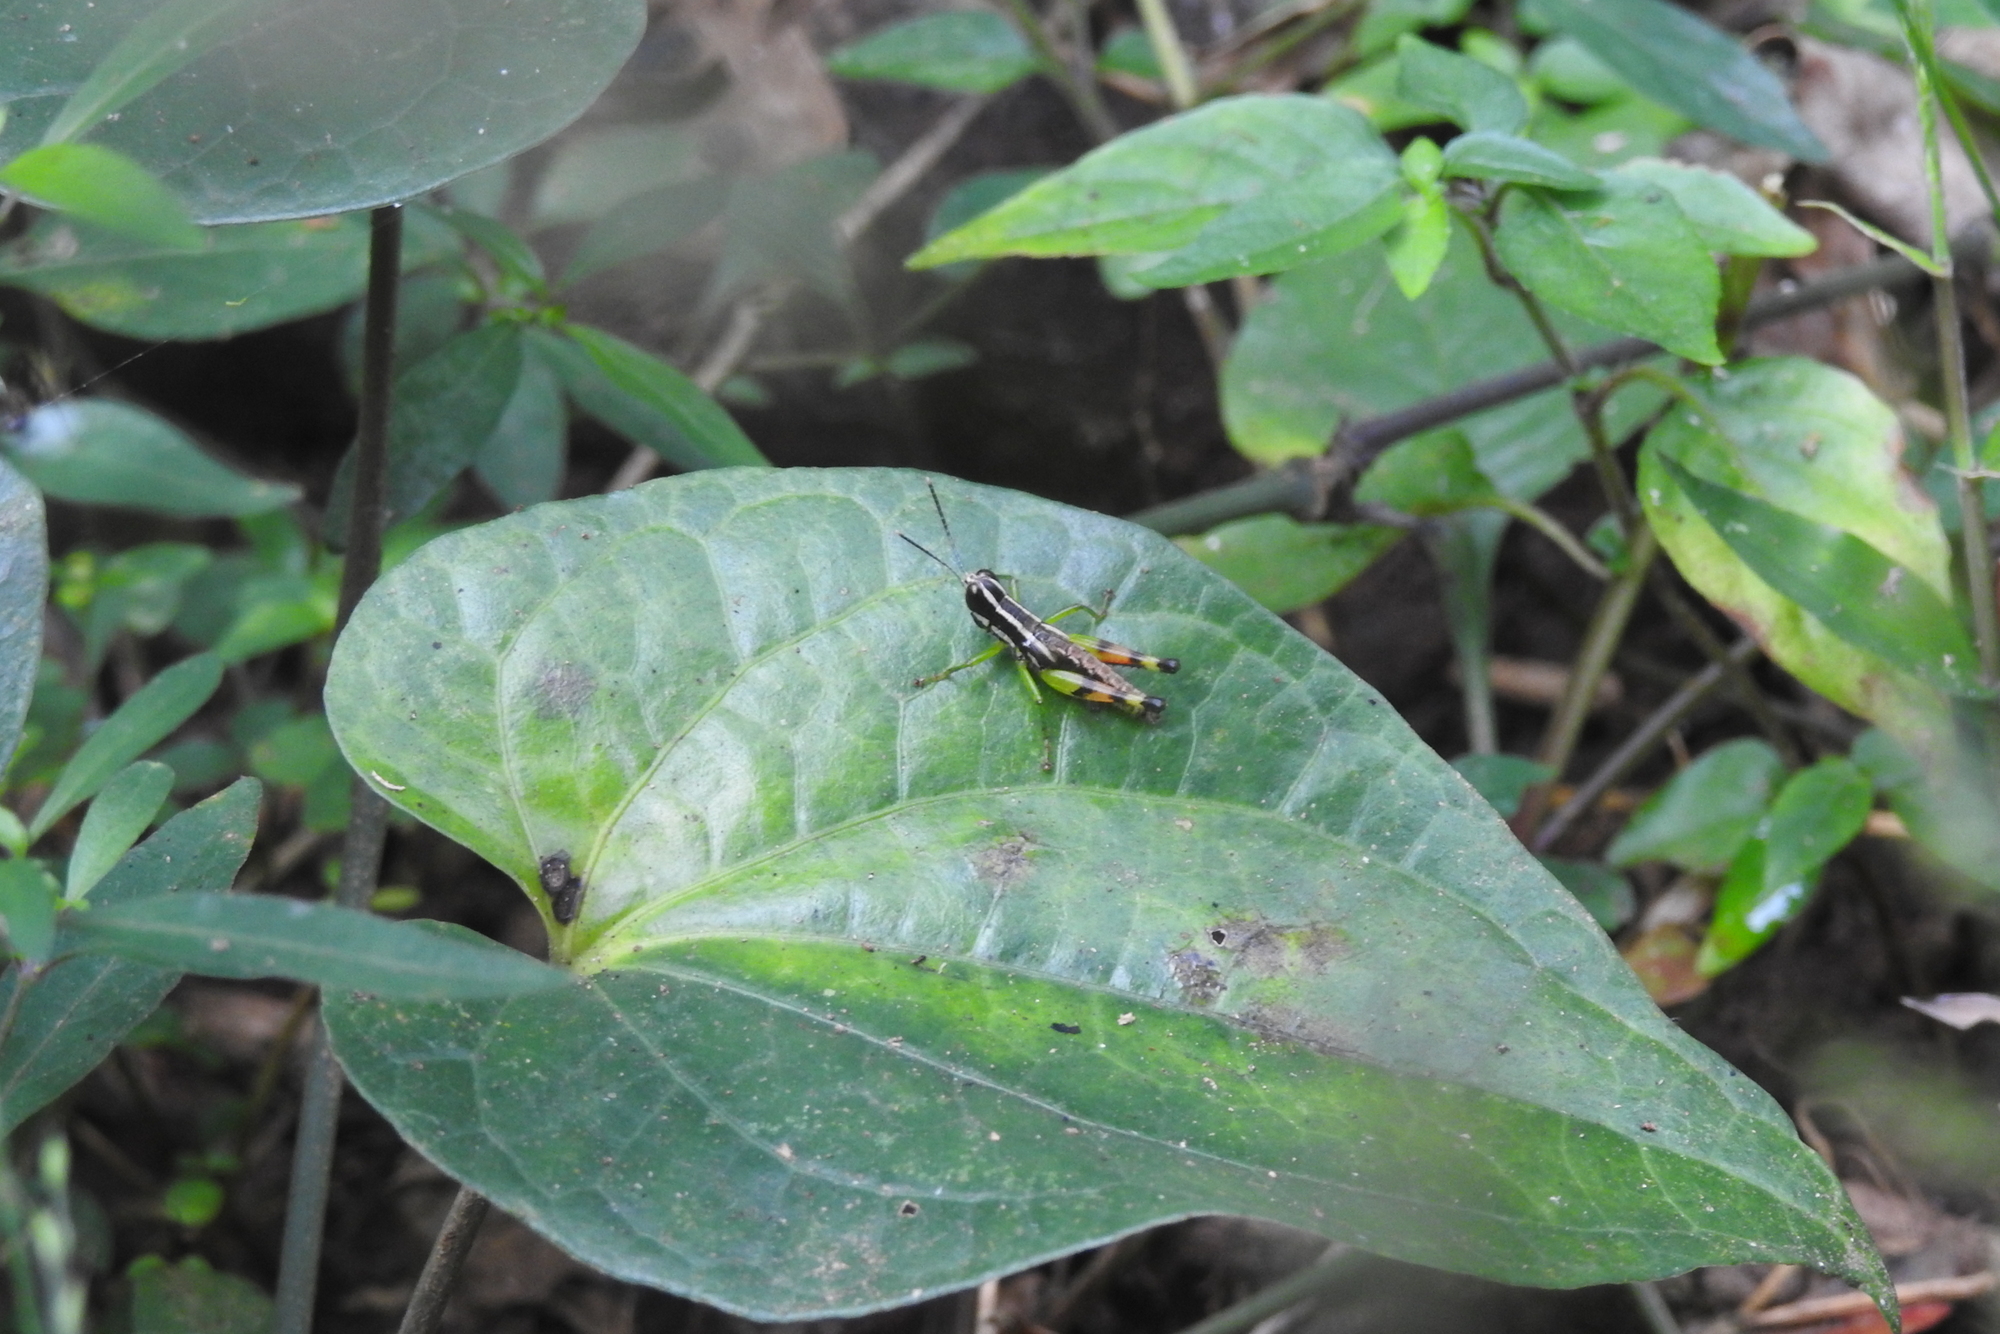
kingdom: Animalia
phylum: Arthropoda
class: Insecta
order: Orthoptera
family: Acrididae
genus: Chitaura
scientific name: Chitaura indica
